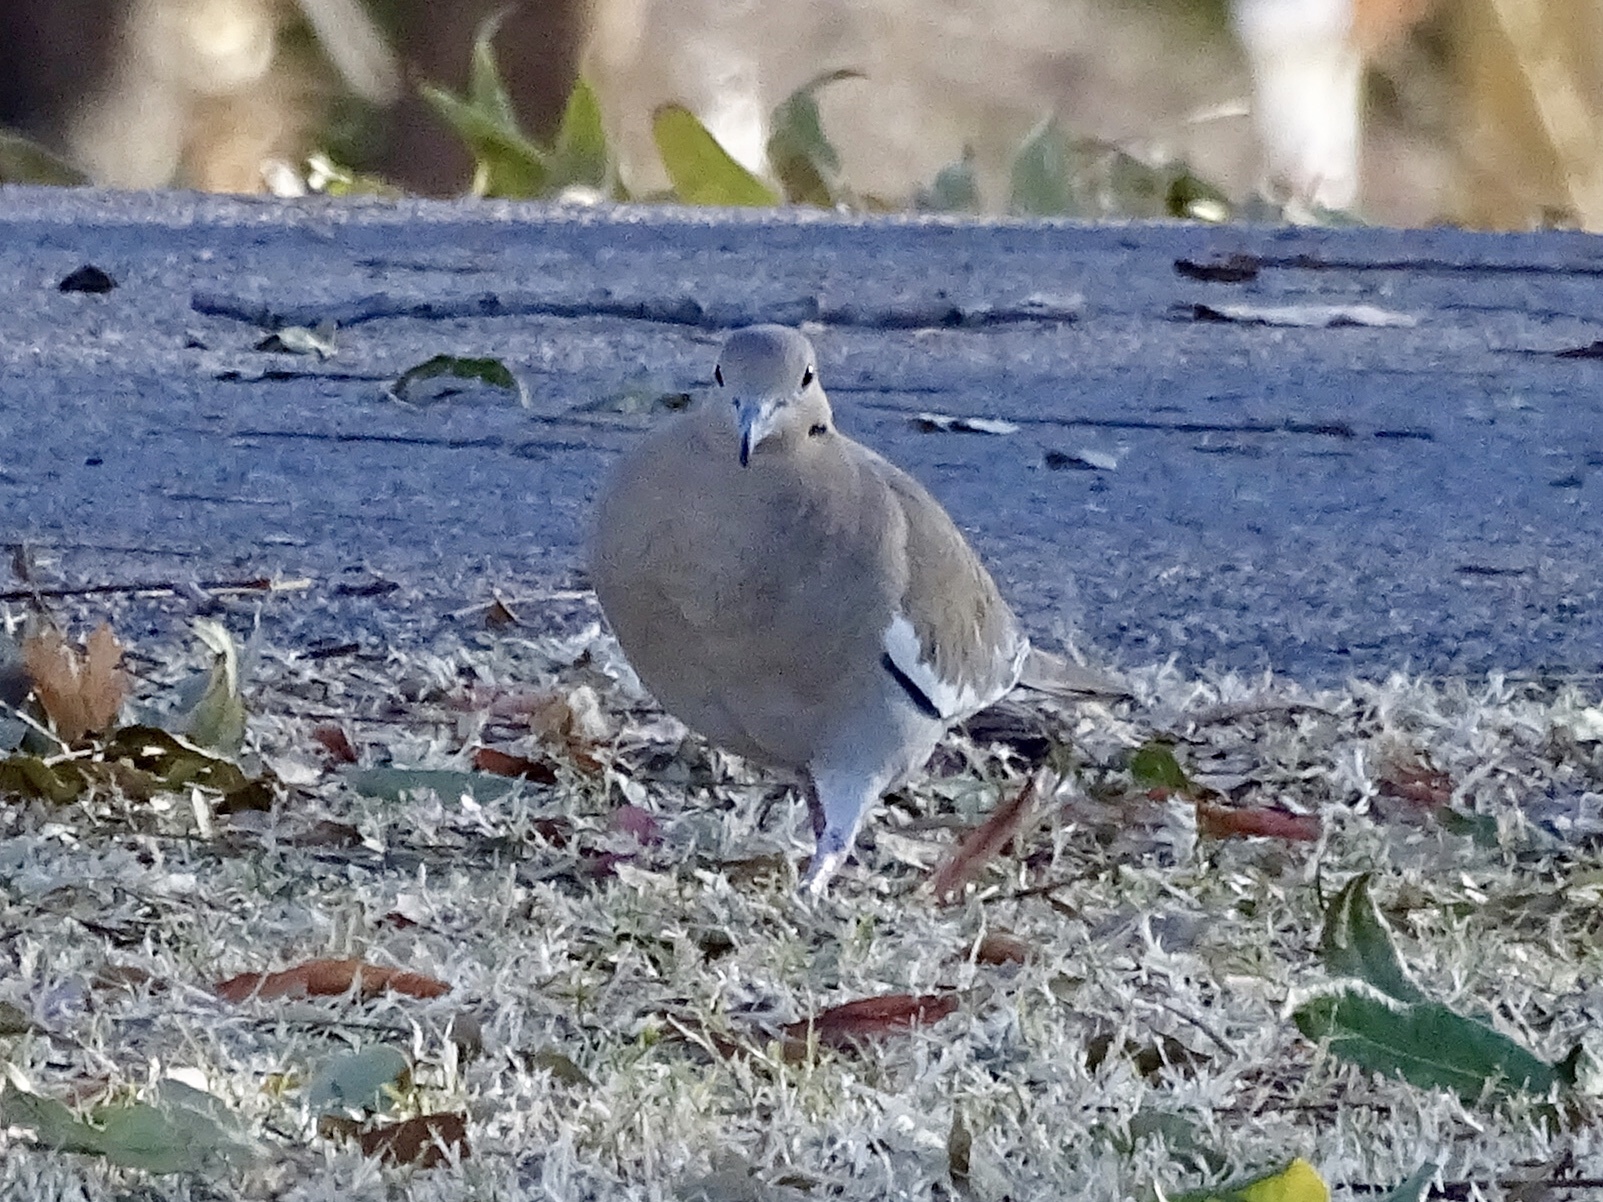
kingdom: Animalia
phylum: Chordata
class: Aves
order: Columbiformes
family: Columbidae
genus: Zenaida
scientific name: Zenaida asiatica
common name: White-winged dove
